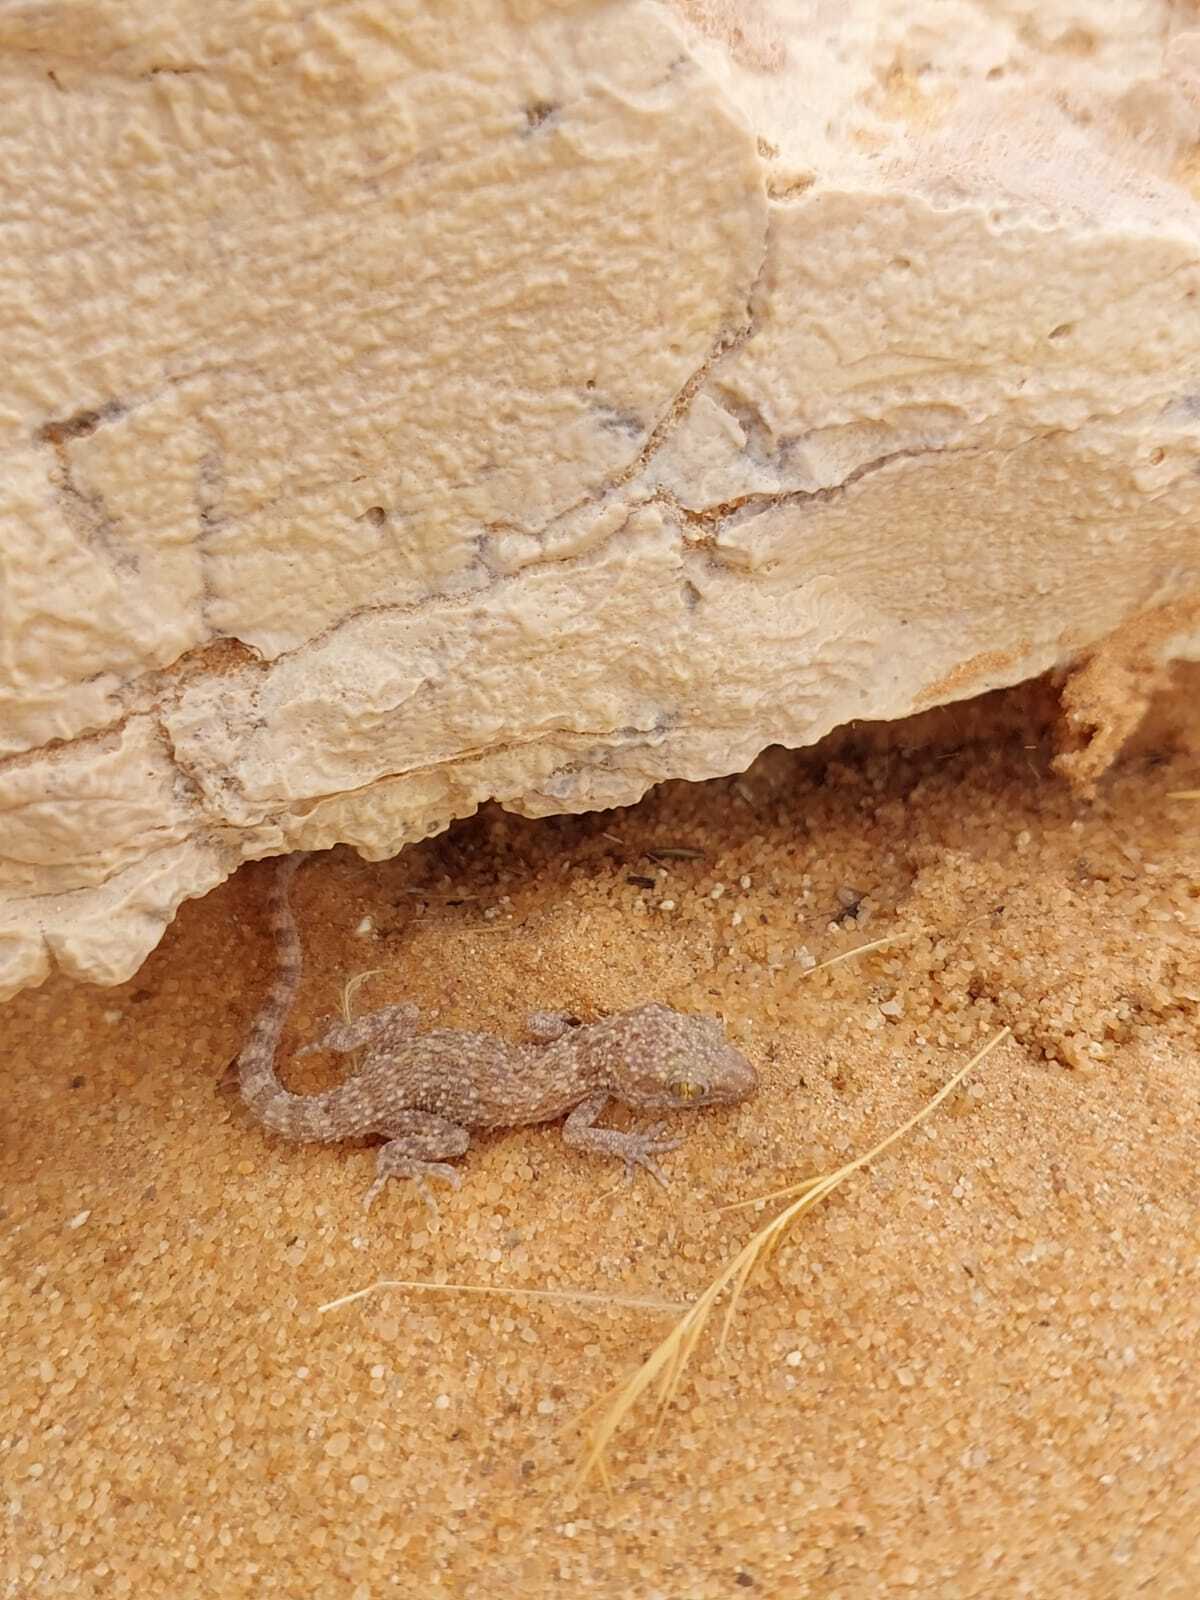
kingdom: Animalia
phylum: Chordata
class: Squamata
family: Gekkonidae
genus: Bunopus
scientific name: Bunopus tuberculatus
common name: Southern tuberculated gecko
